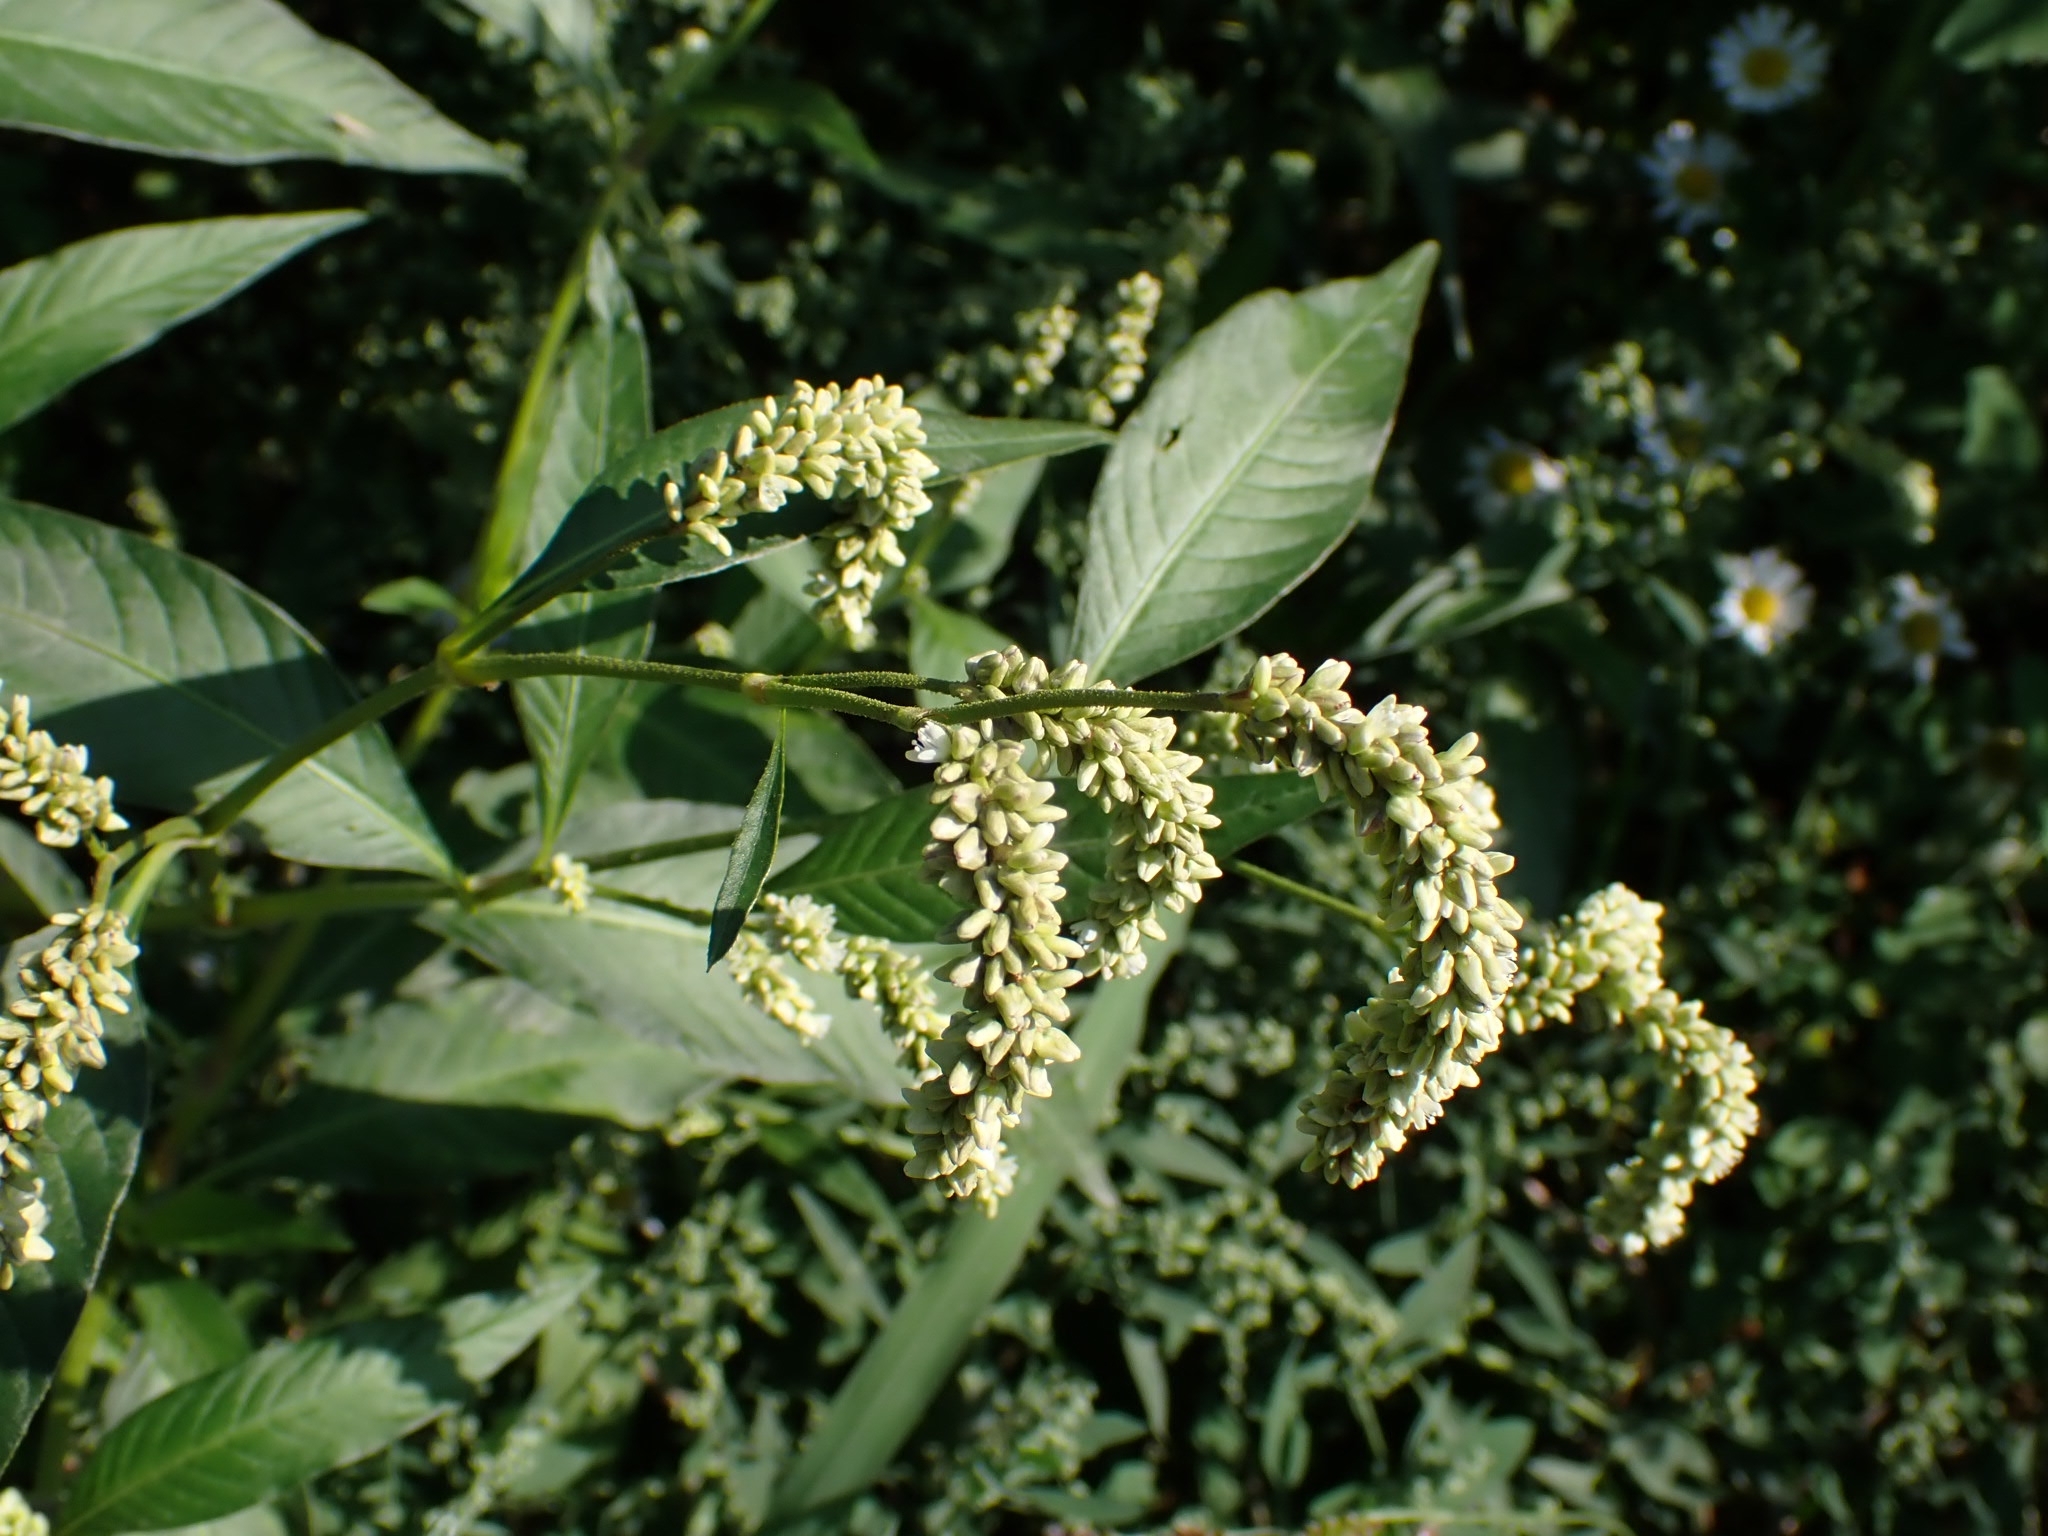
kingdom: Plantae
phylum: Tracheophyta
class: Magnoliopsida
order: Caryophyllales
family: Polygonaceae
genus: Persicaria
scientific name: Persicaria lapathifolia
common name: Curlytop knotweed
